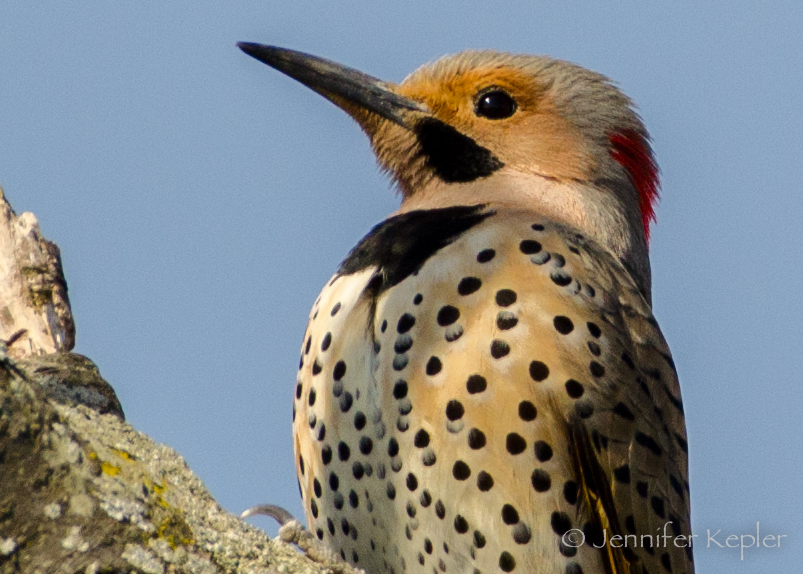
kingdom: Animalia
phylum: Chordata
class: Aves
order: Piciformes
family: Picidae
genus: Colaptes
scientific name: Colaptes auratus
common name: Northern flicker
